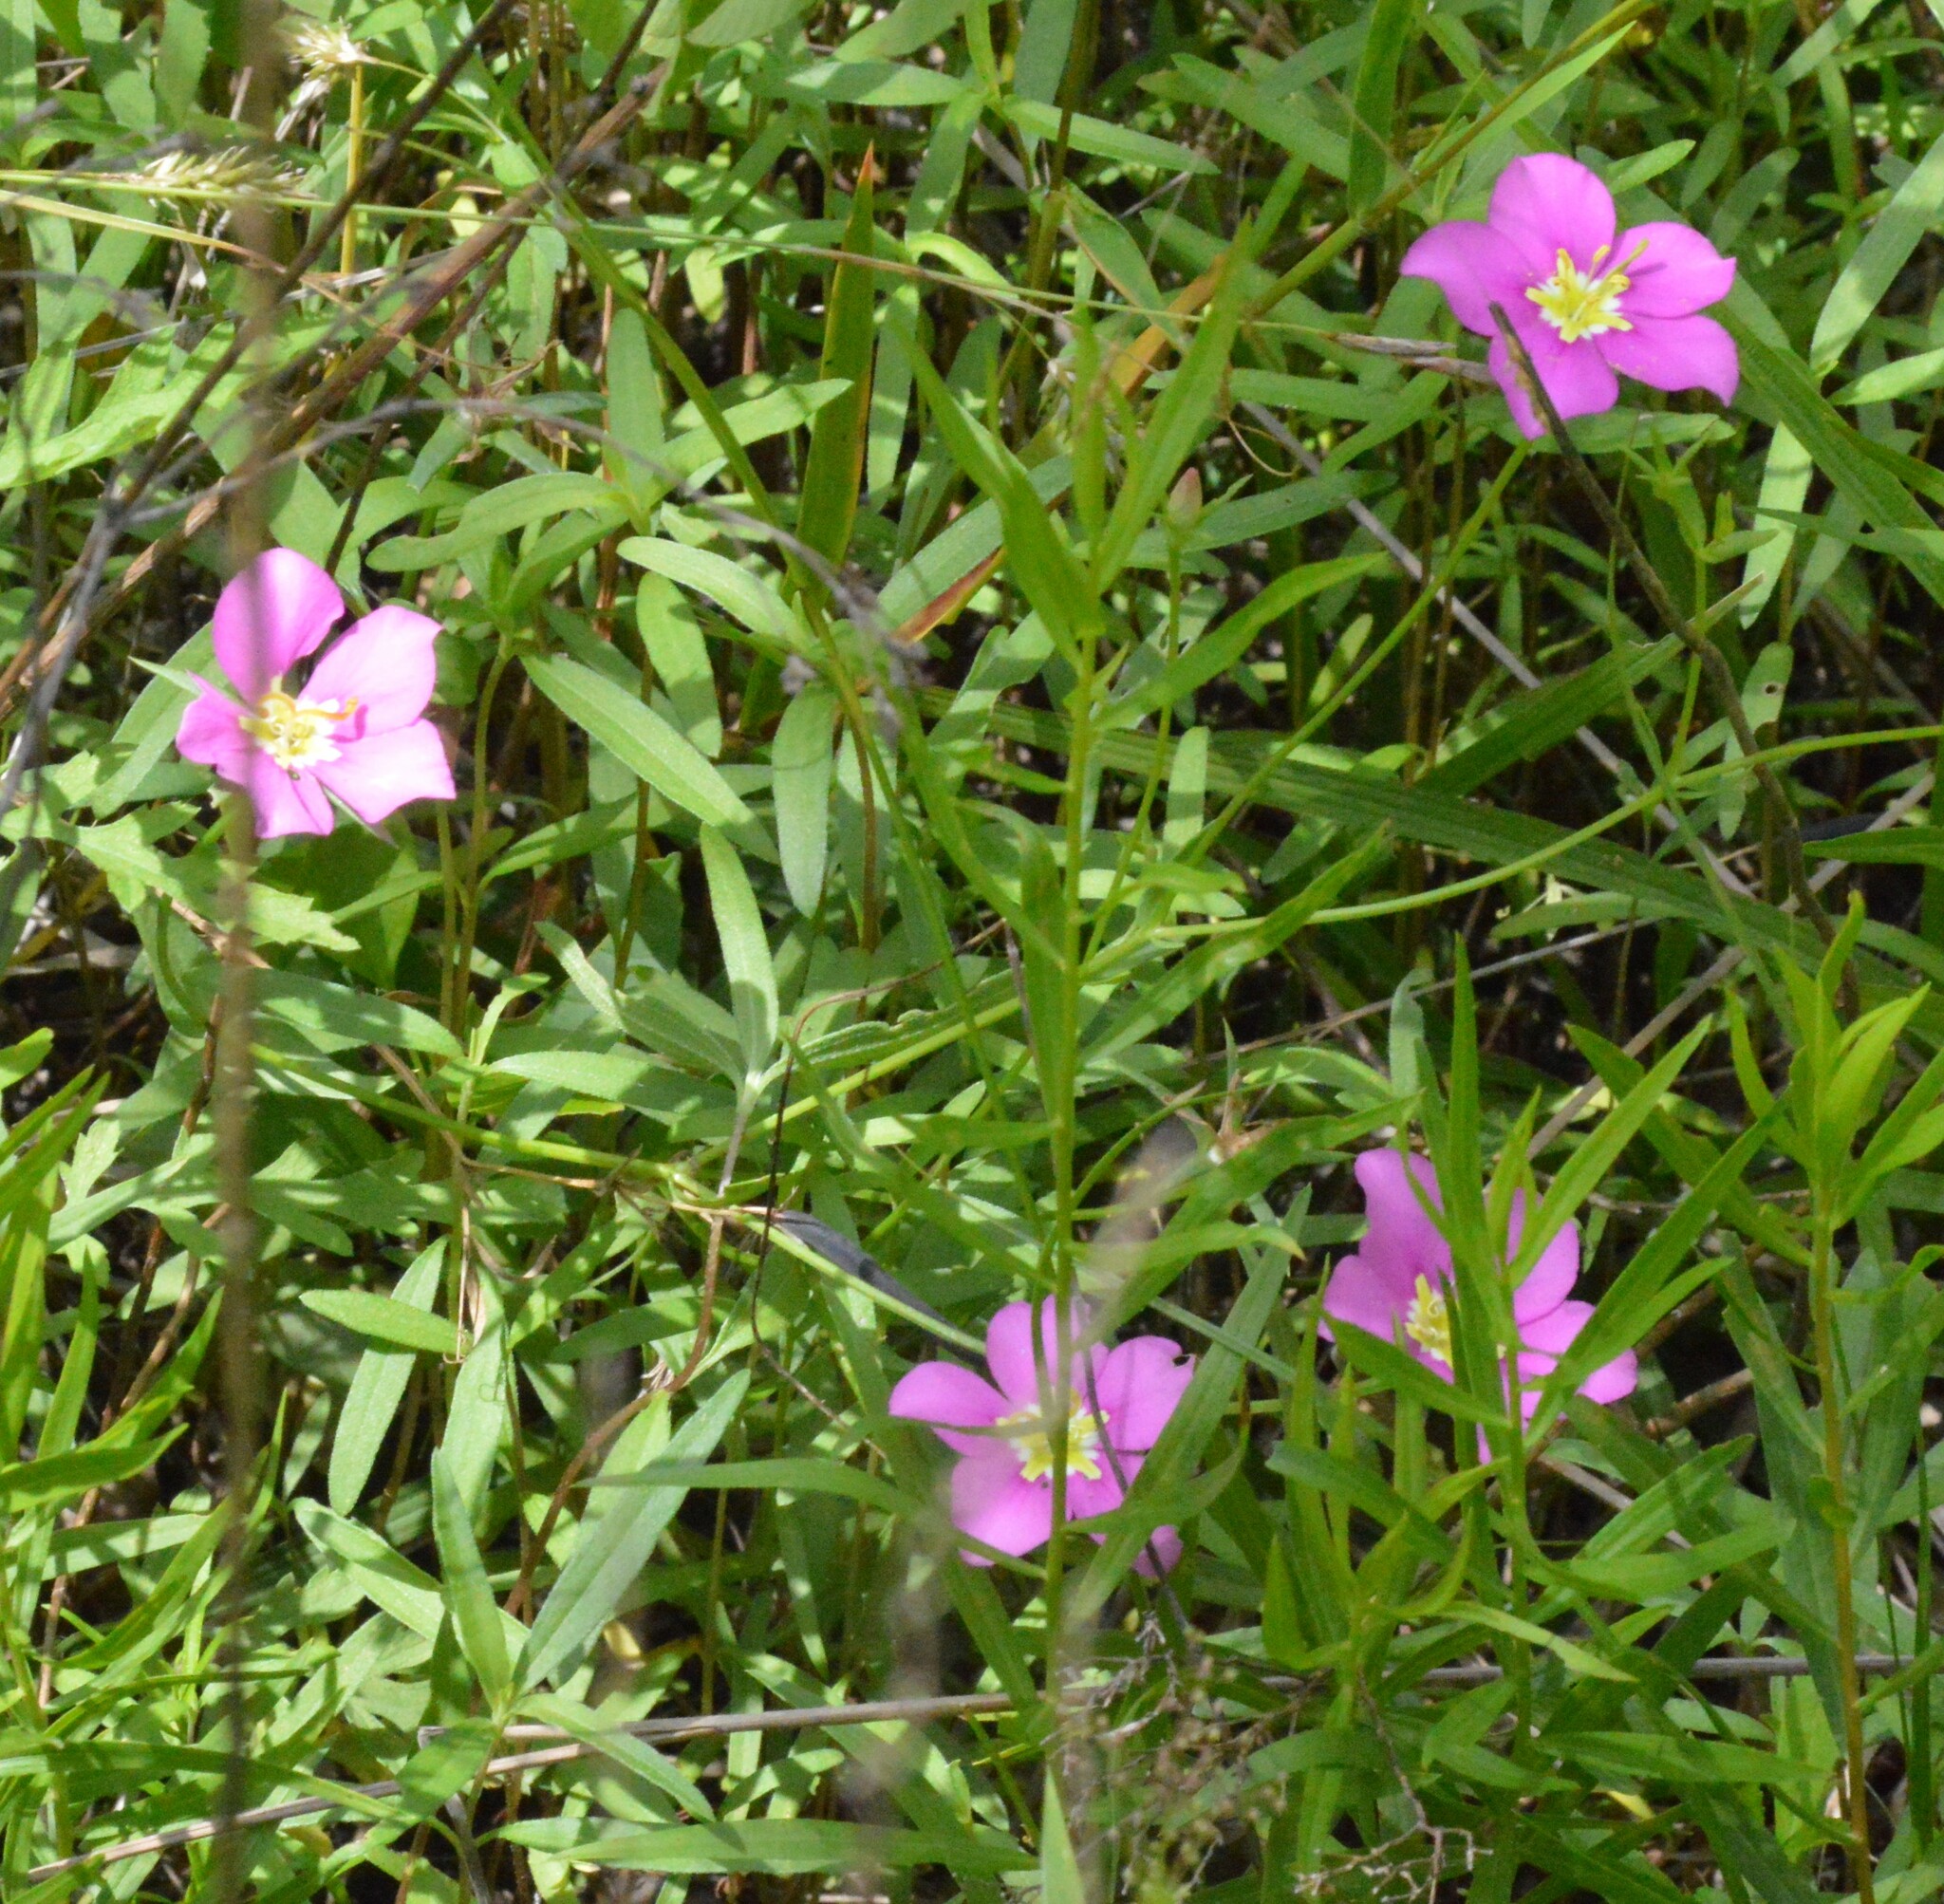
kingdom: Plantae
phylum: Tracheophyta
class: Magnoliopsida
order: Gentianales
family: Gentianaceae
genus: Sabatia
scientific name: Sabatia campestris
